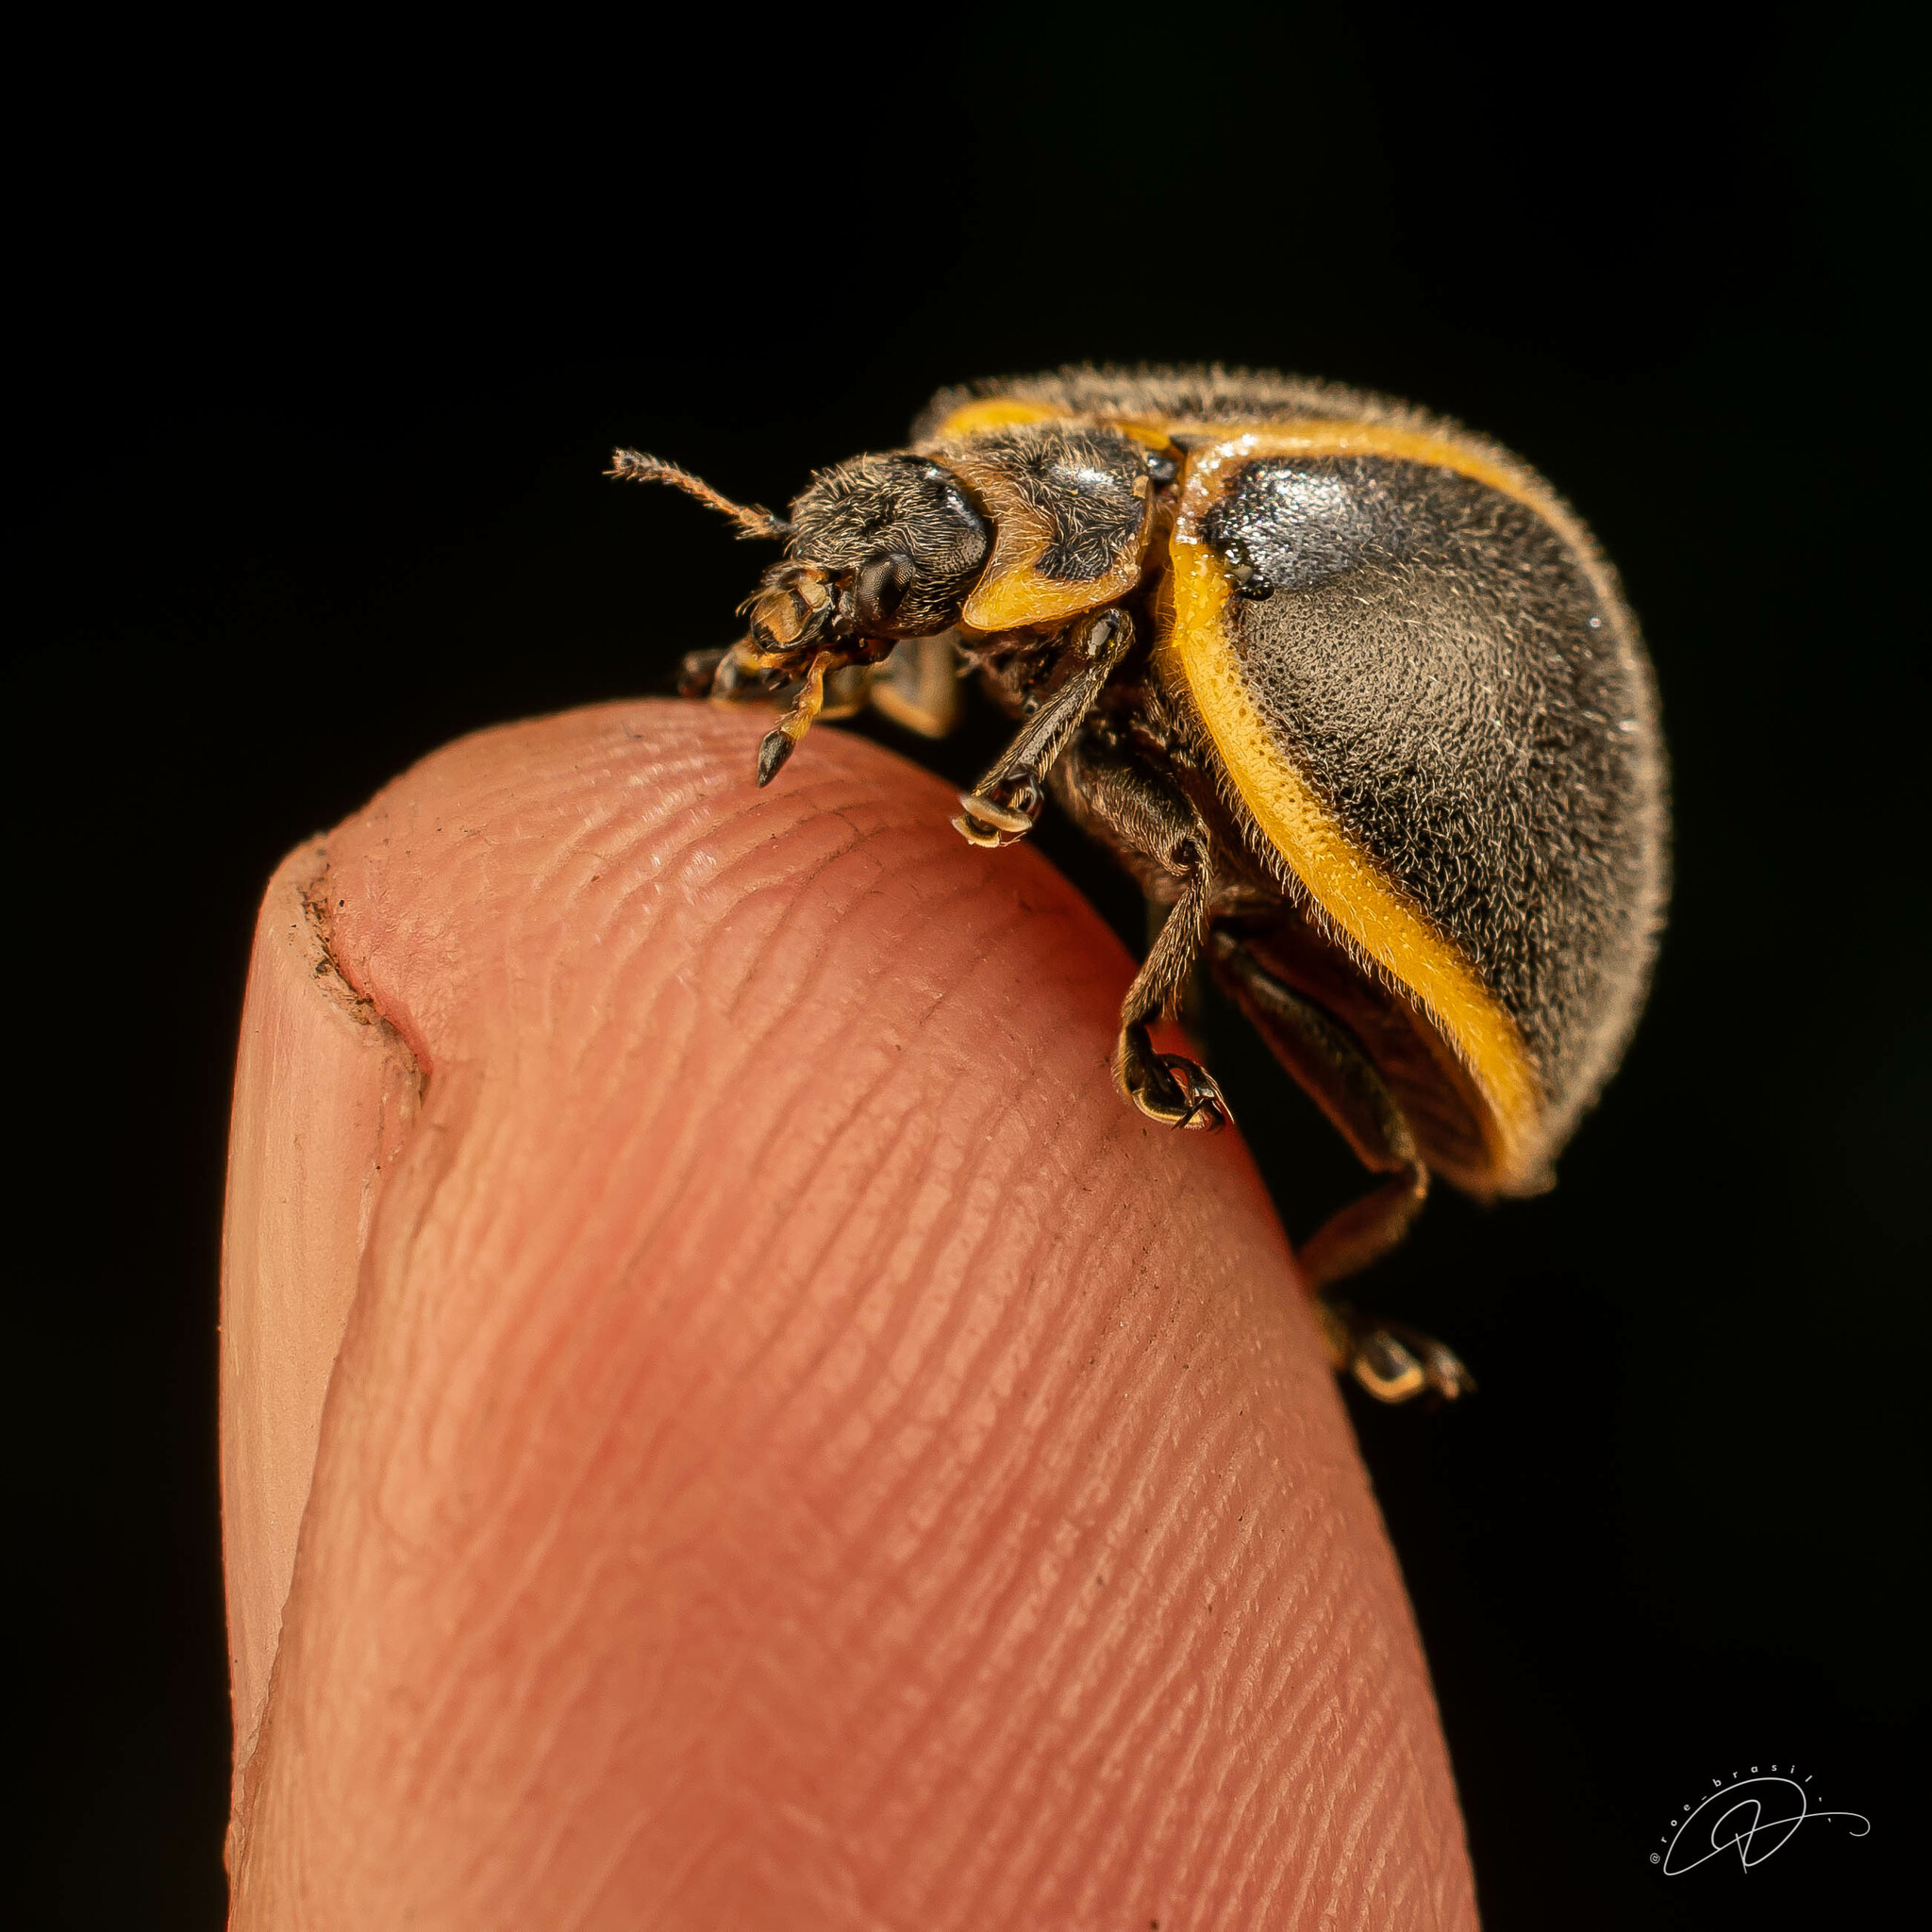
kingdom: Animalia
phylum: Arthropoda
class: Insecta
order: Coleoptera
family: Coccinellidae
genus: Epilachna
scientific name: Epilachna velutina
